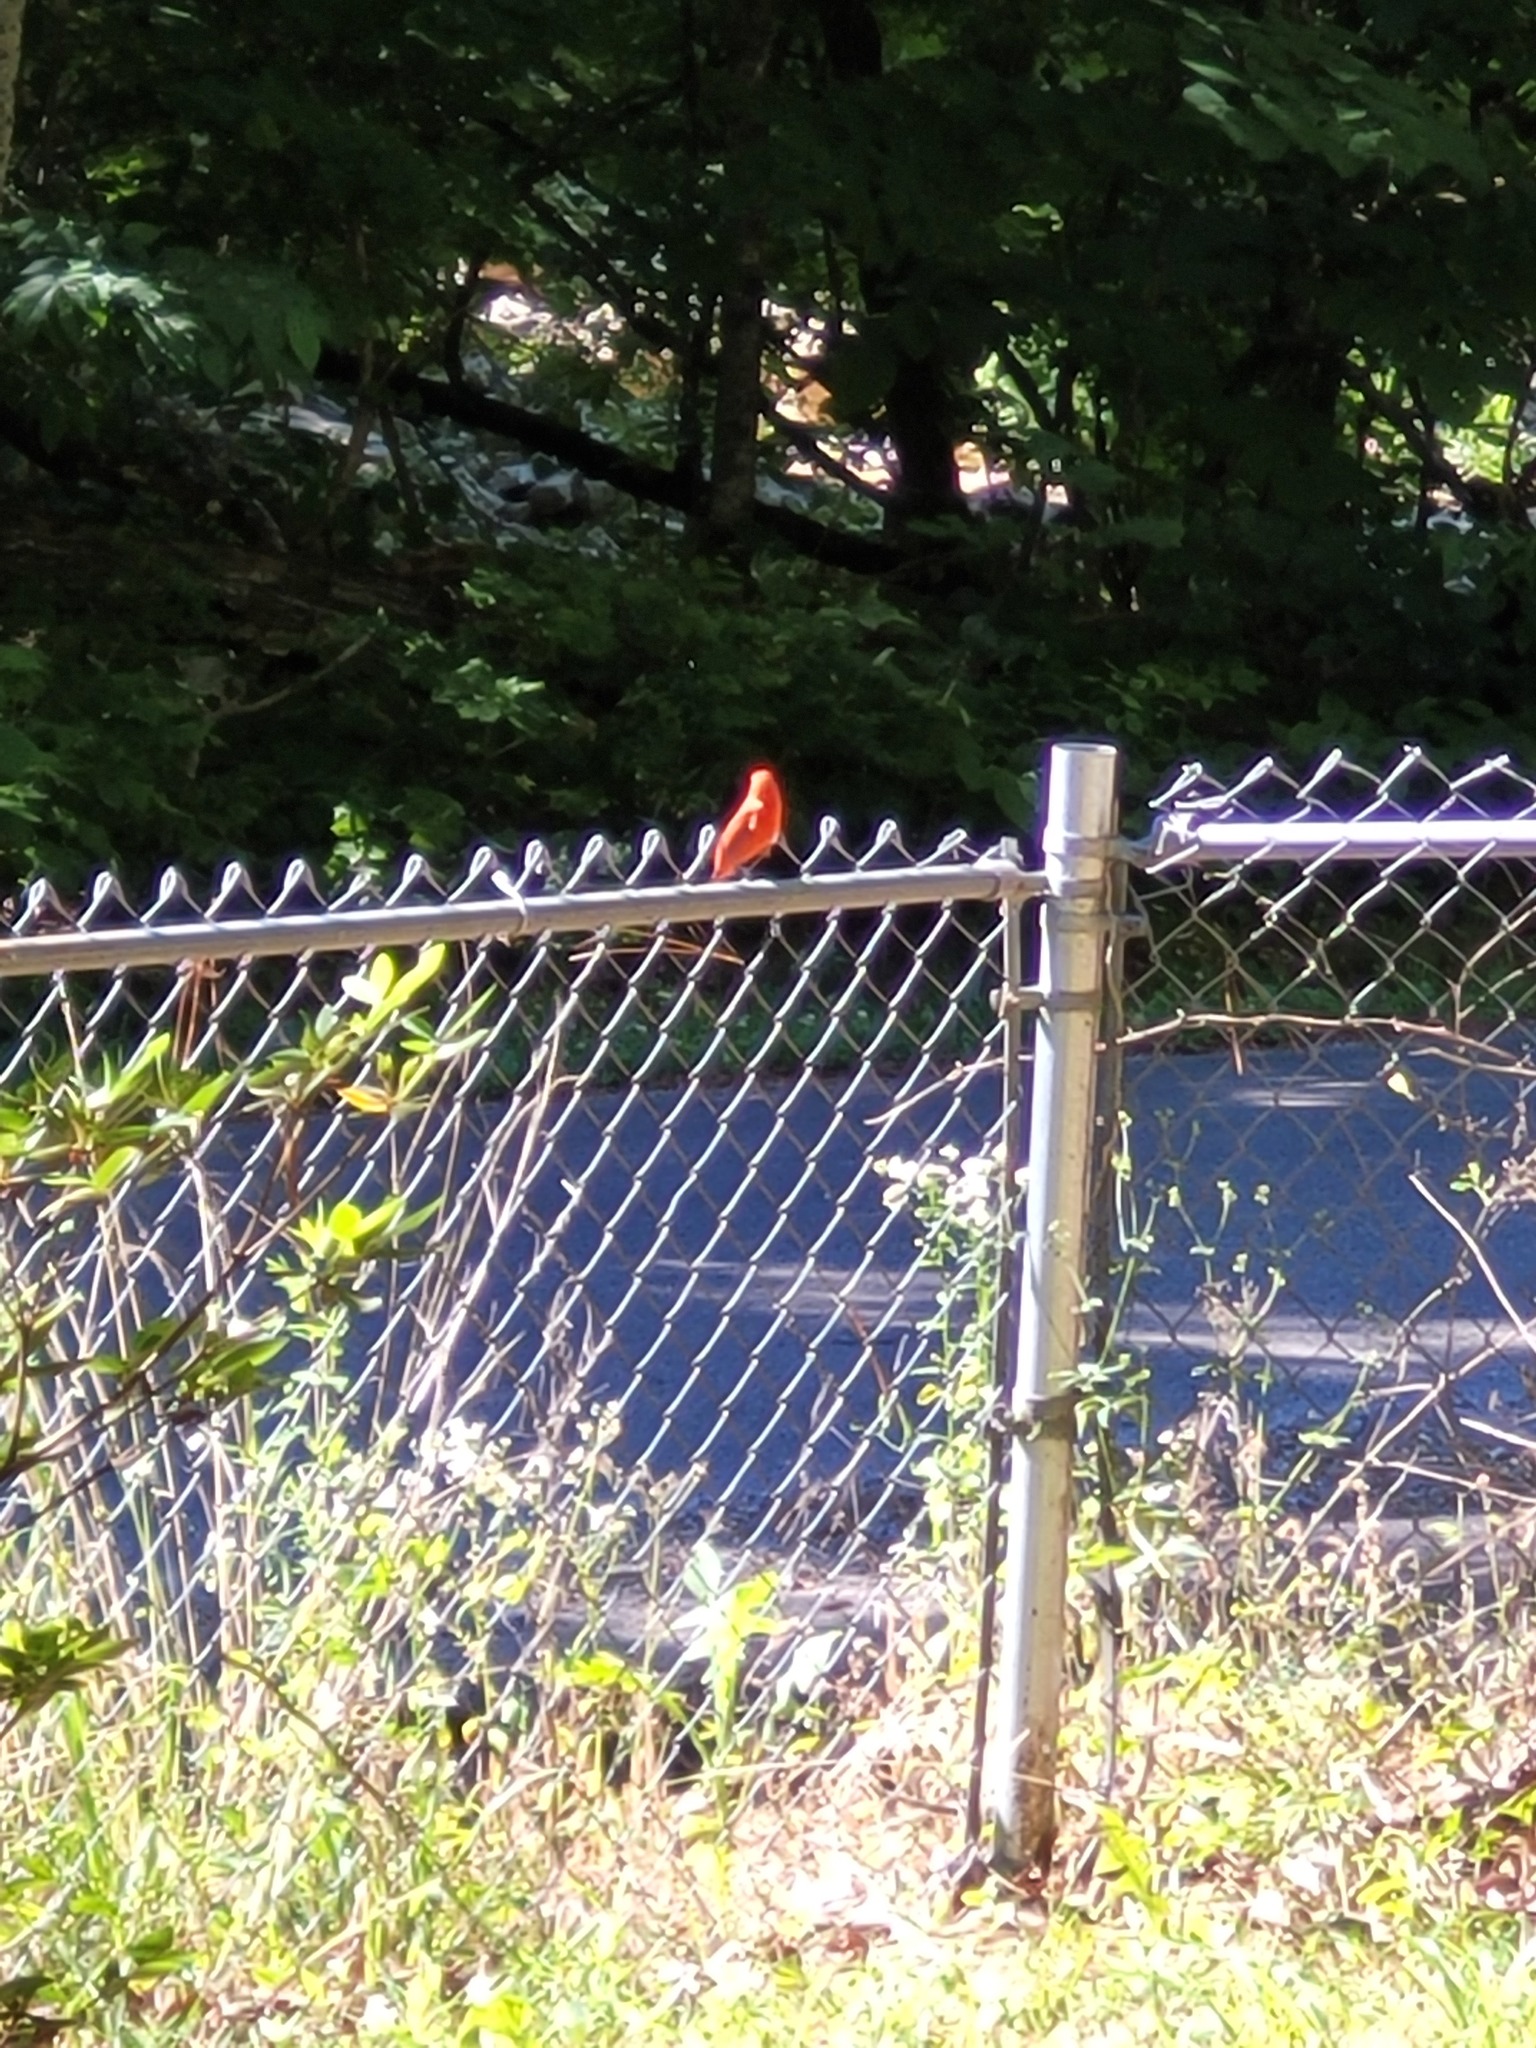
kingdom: Animalia
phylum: Chordata
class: Aves
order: Passeriformes
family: Cardinalidae
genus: Piranga
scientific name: Piranga rubra
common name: Summer tanager
